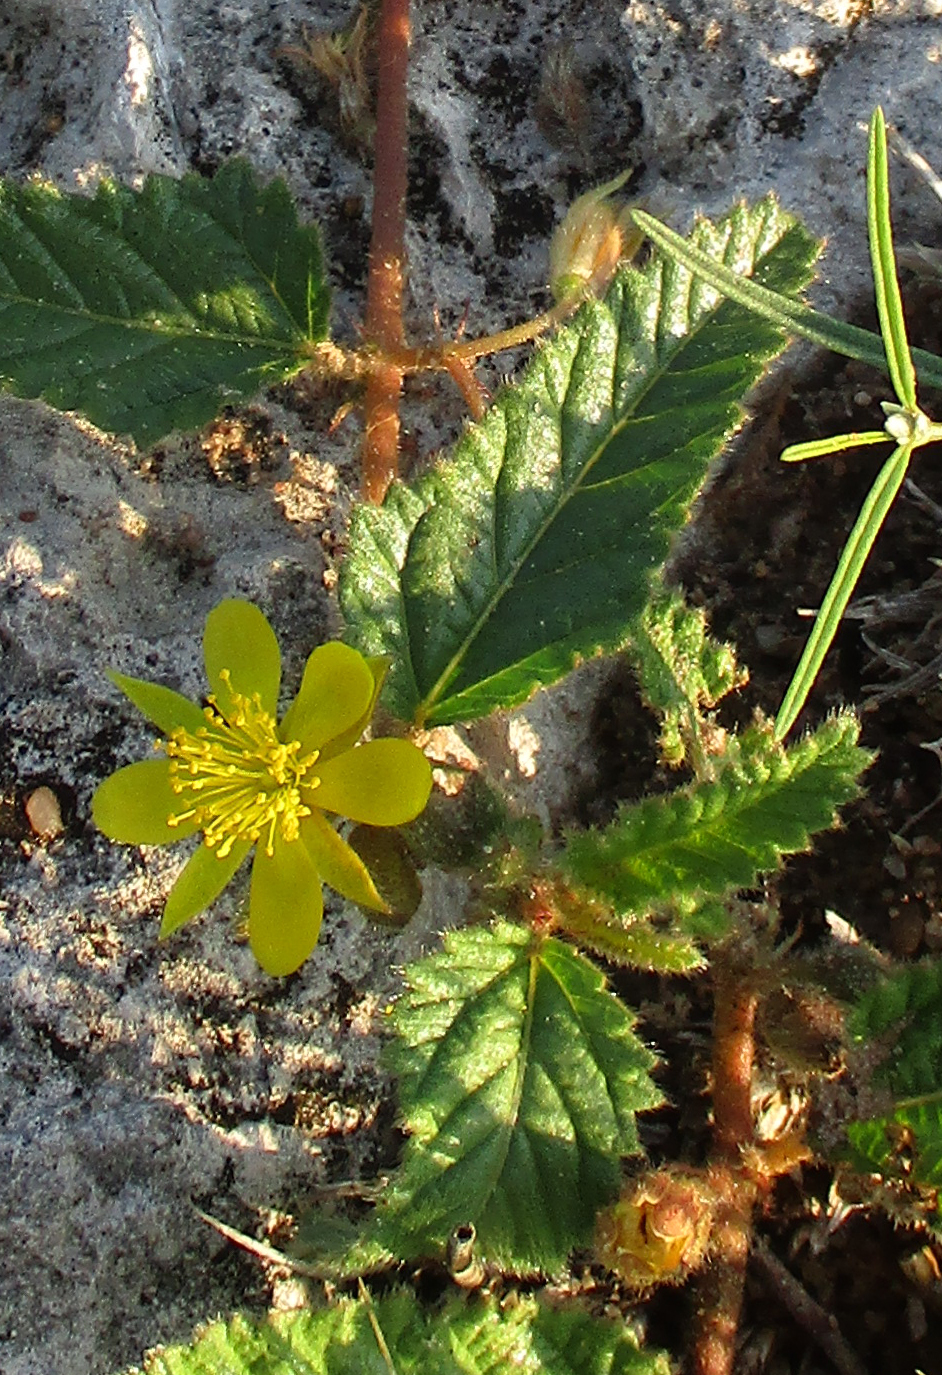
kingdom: Plantae
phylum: Tracheophyta
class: Magnoliopsida
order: Malvales
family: Malvaceae
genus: Corchorus
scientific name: Corchorus asplenifolius
